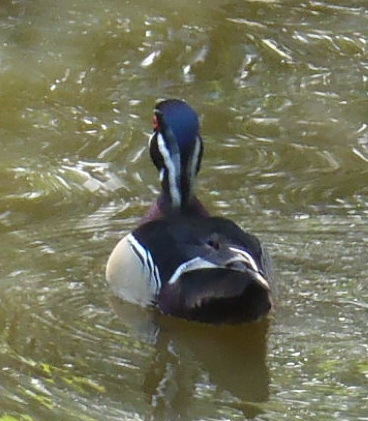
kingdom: Animalia
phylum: Chordata
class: Aves
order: Anseriformes
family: Anatidae
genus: Aix
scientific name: Aix sponsa
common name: Wood duck
